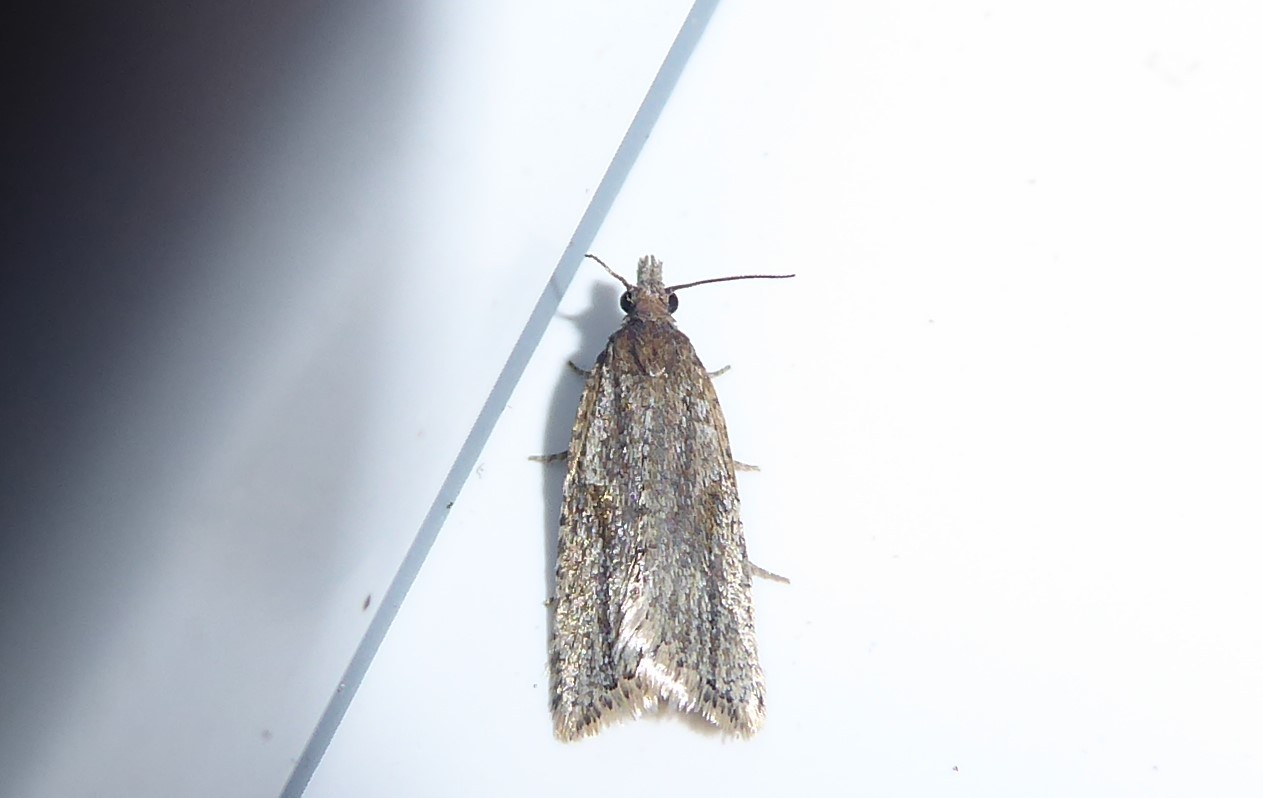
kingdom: Animalia
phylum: Arthropoda
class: Insecta
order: Lepidoptera
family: Tortricidae
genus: Capua
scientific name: Capua semiferana
